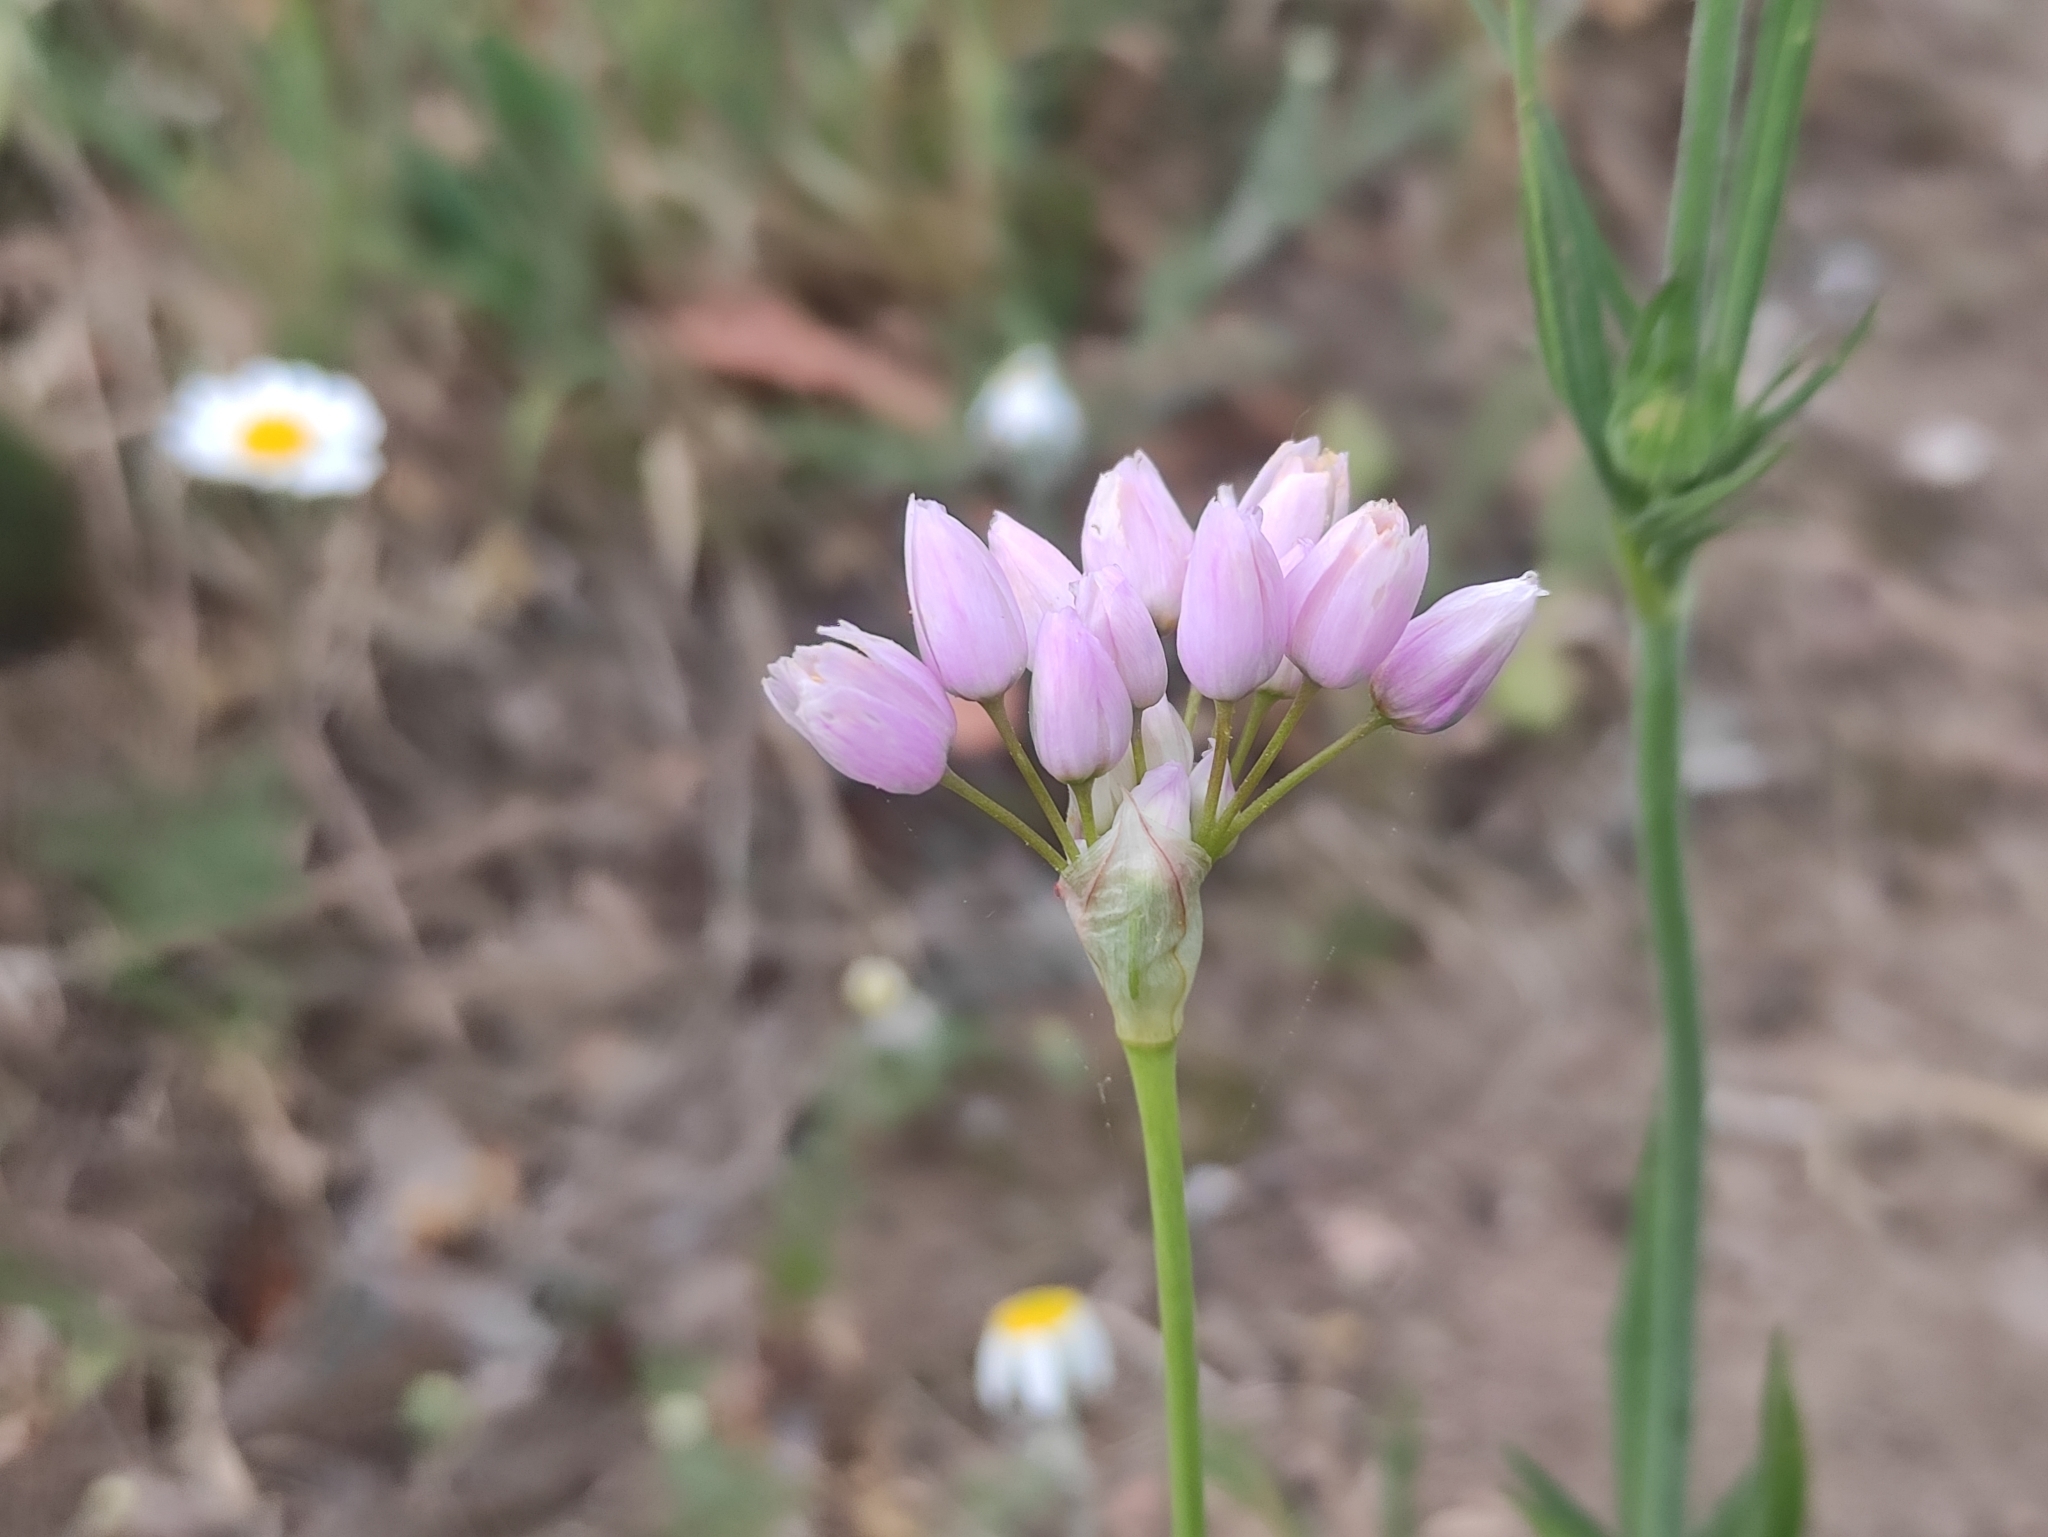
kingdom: Plantae
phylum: Tracheophyta
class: Liliopsida
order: Asparagales
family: Amaryllidaceae
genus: Allium
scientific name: Allium roseum
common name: Rosy garlic
